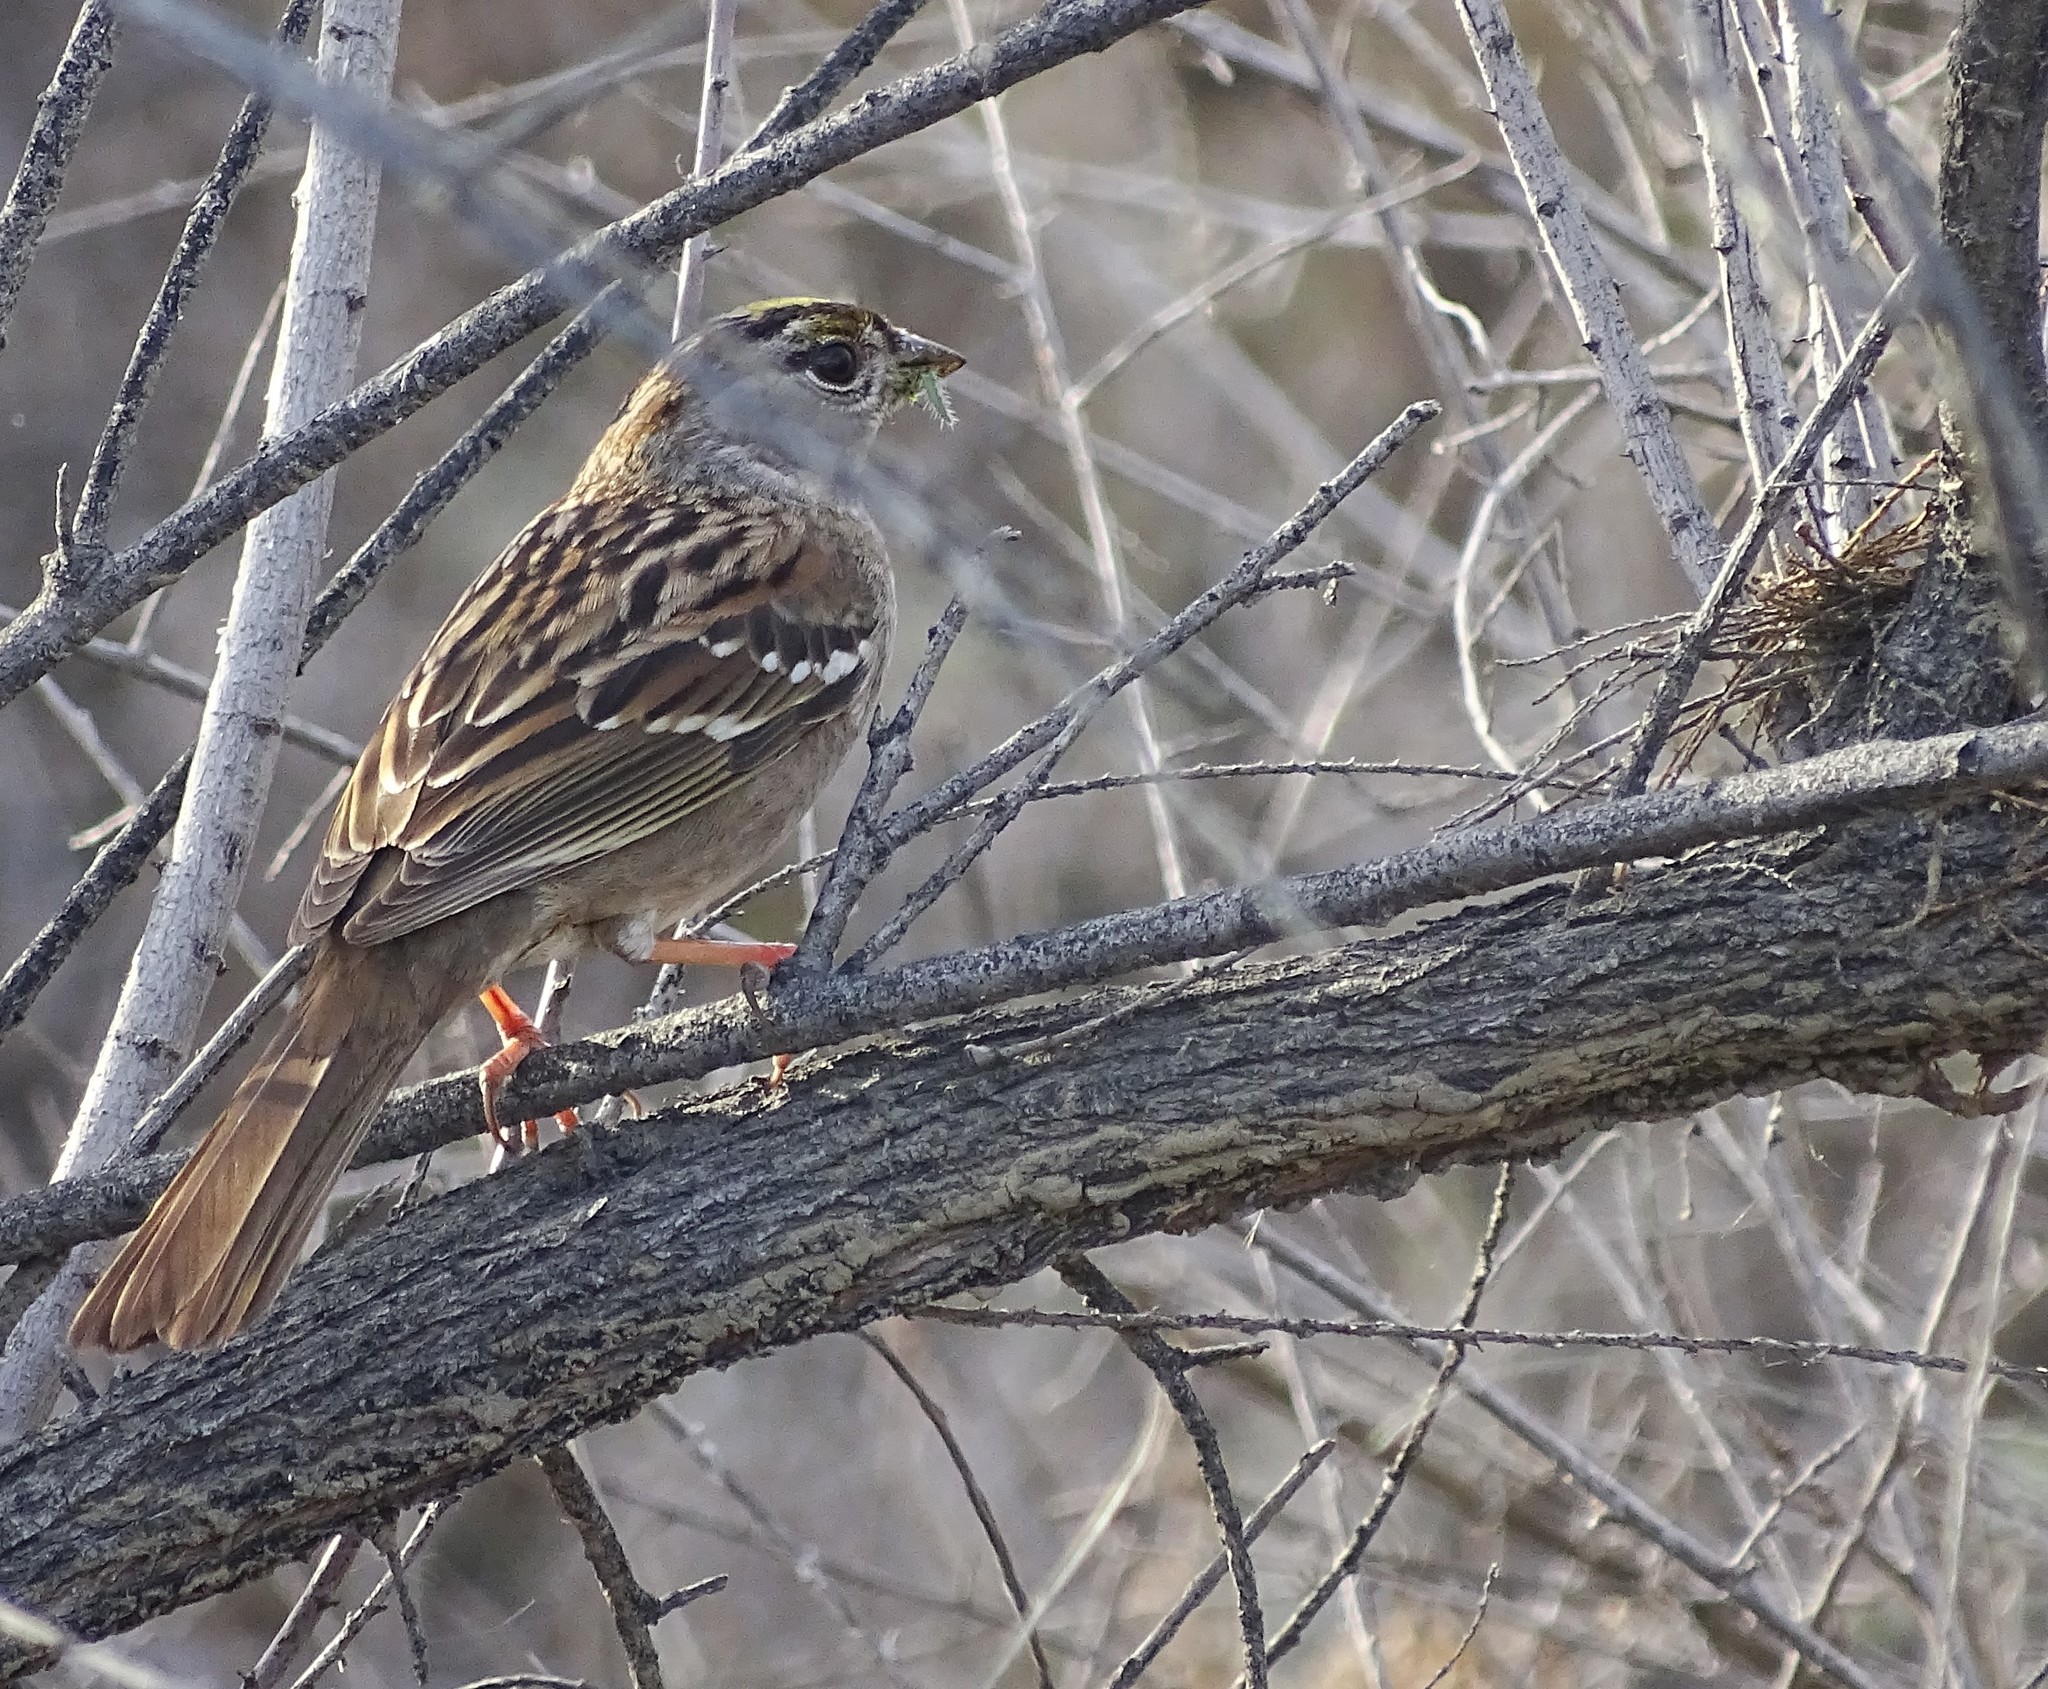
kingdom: Animalia
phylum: Chordata
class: Aves
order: Passeriformes
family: Passerellidae
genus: Zonotrichia
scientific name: Zonotrichia atricapilla
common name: Golden-crowned sparrow
